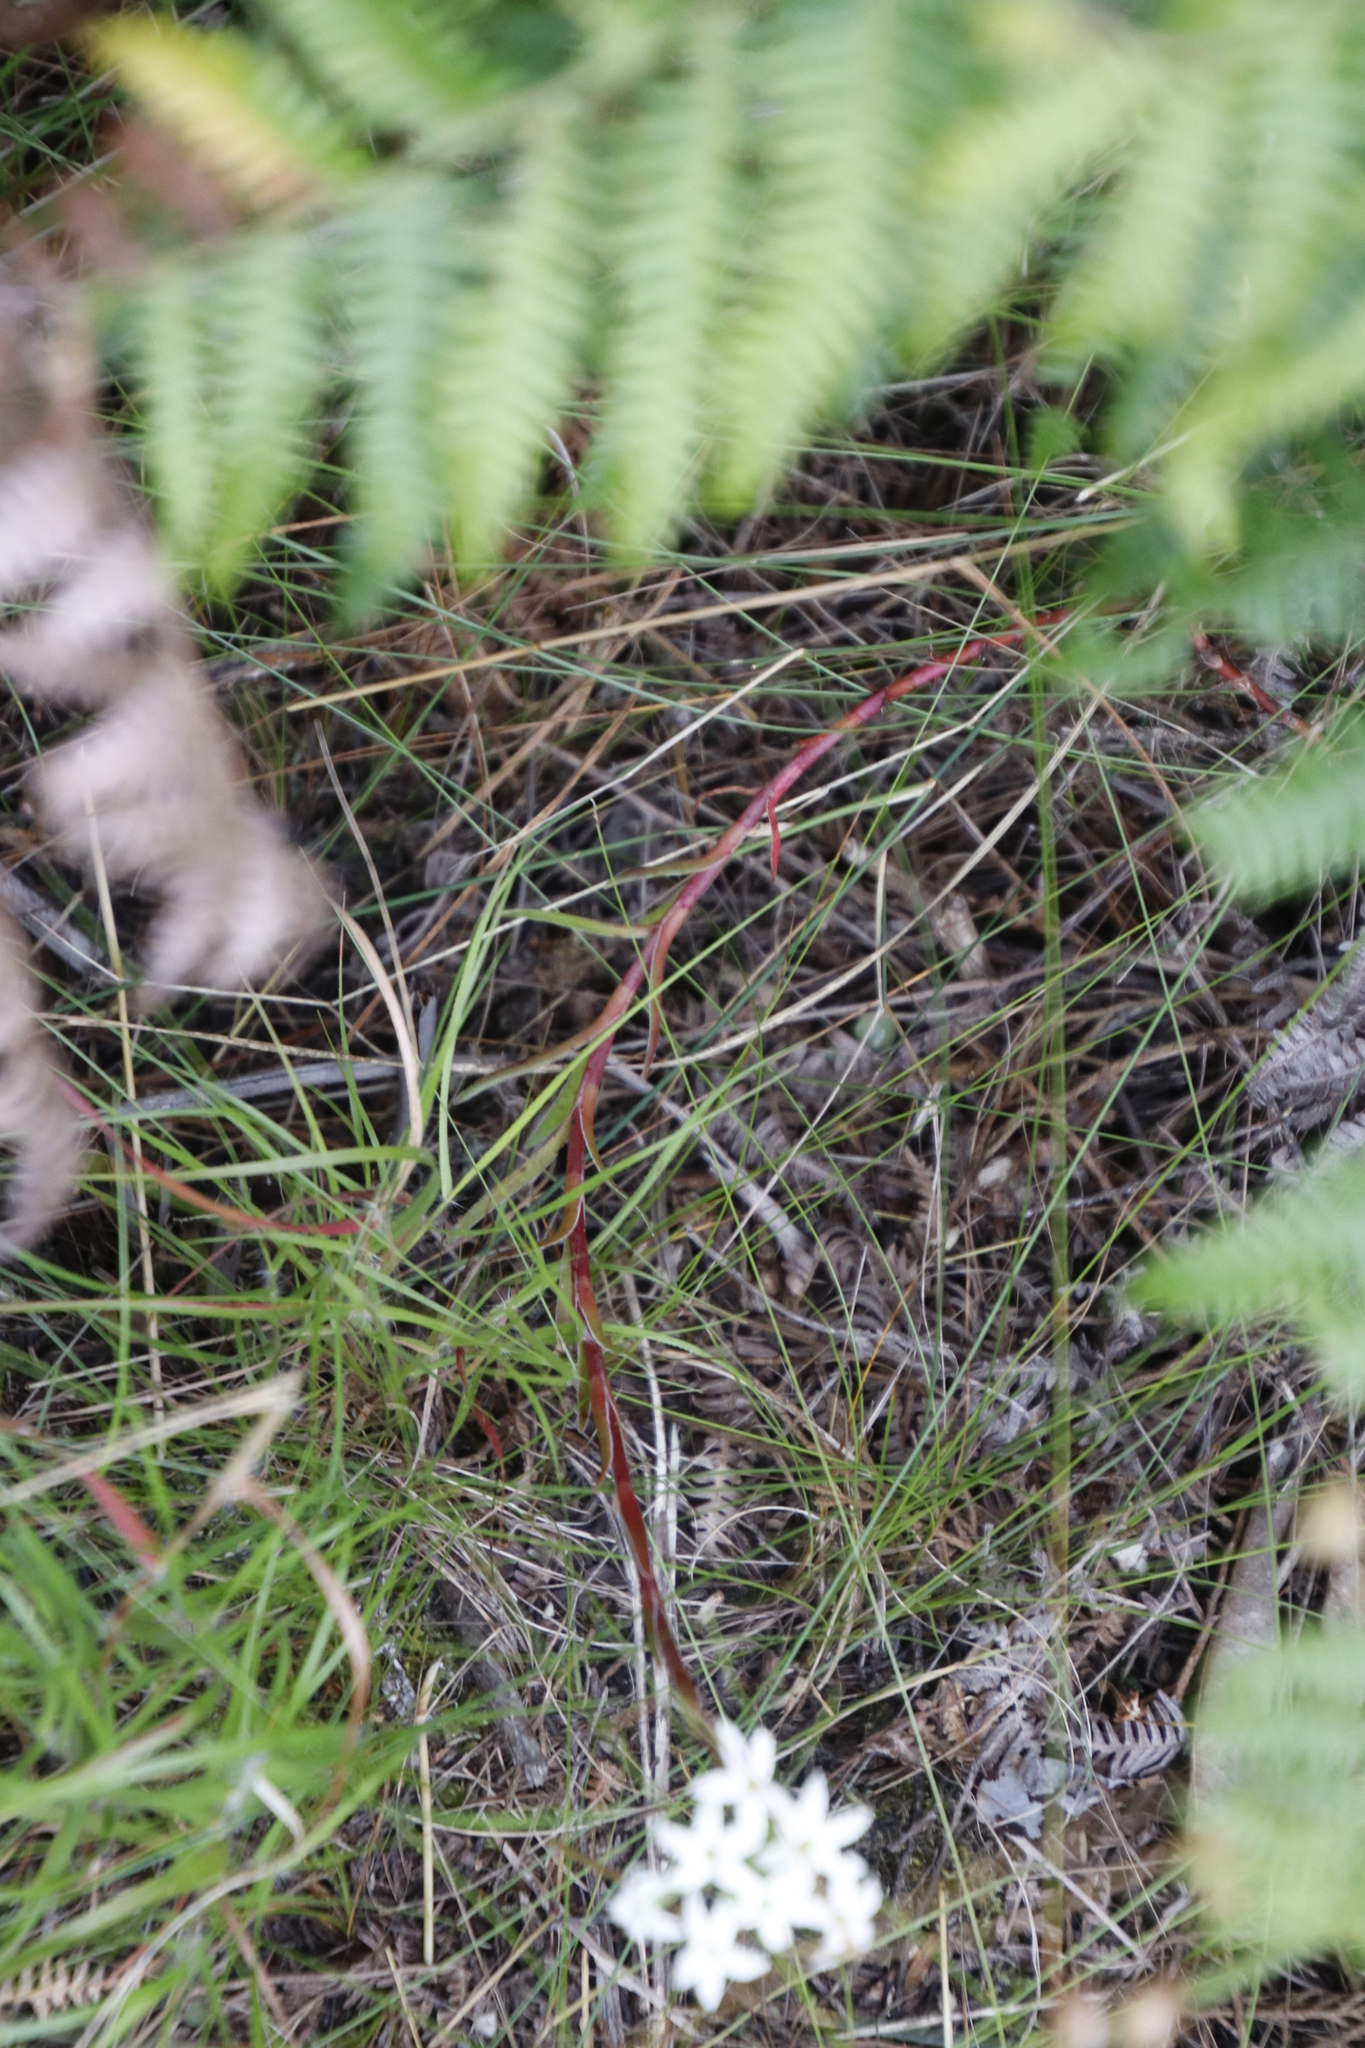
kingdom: Plantae
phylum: Tracheophyta
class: Magnoliopsida
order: Saxifragales
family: Crassulaceae
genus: Crassula
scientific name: Crassula fascicularis
